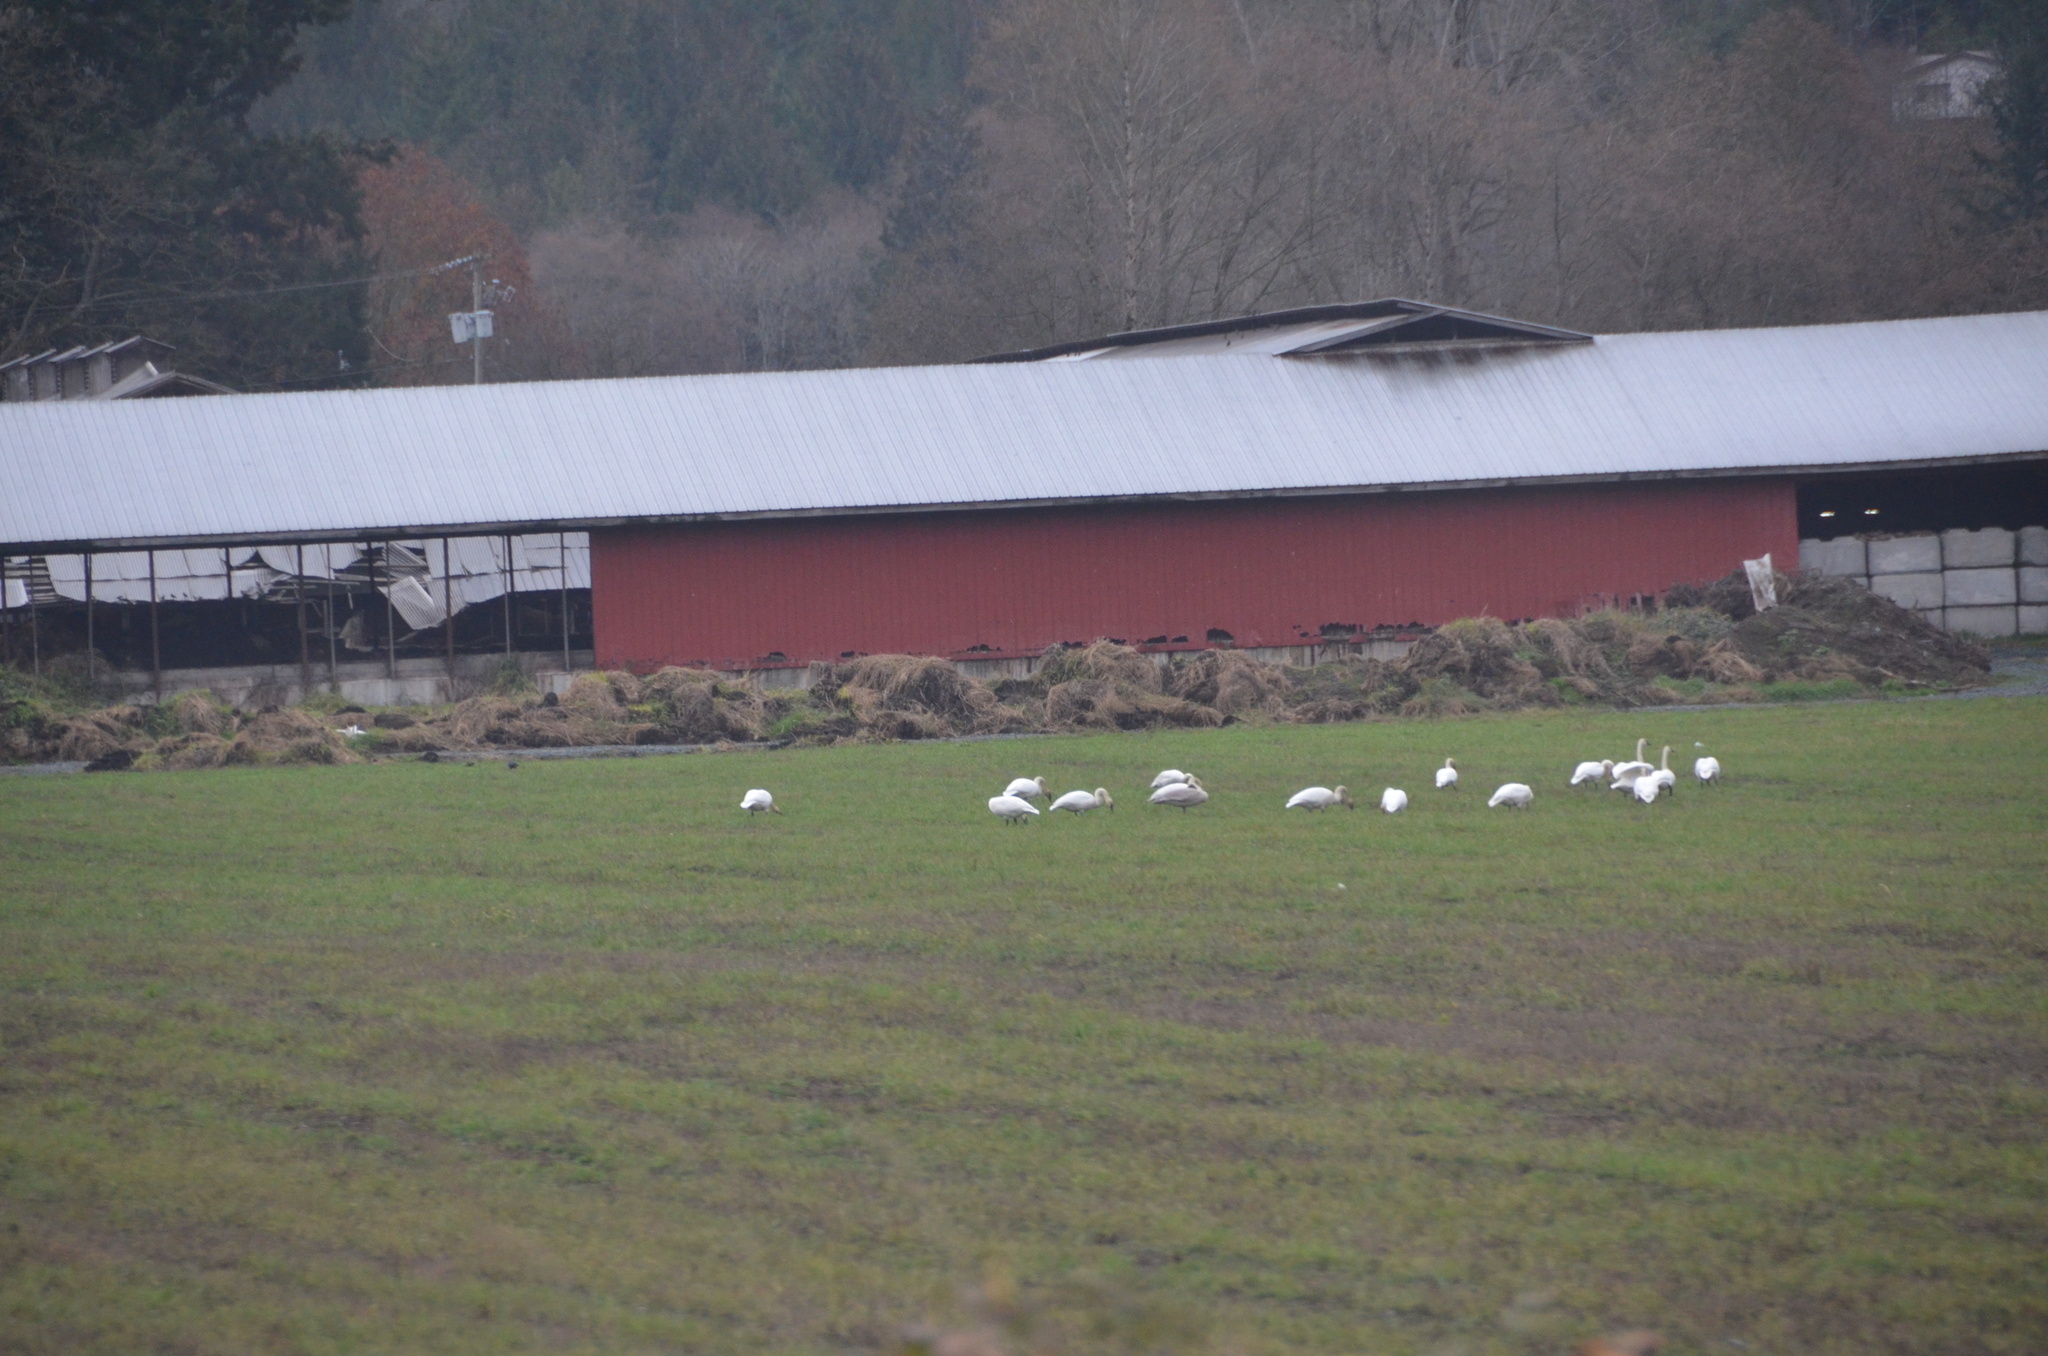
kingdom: Animalia
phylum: Chordata
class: Aves
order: Anseriformes
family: Anatidae
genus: Cygnus
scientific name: Cygnus buccinator
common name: Trumpeter swan
